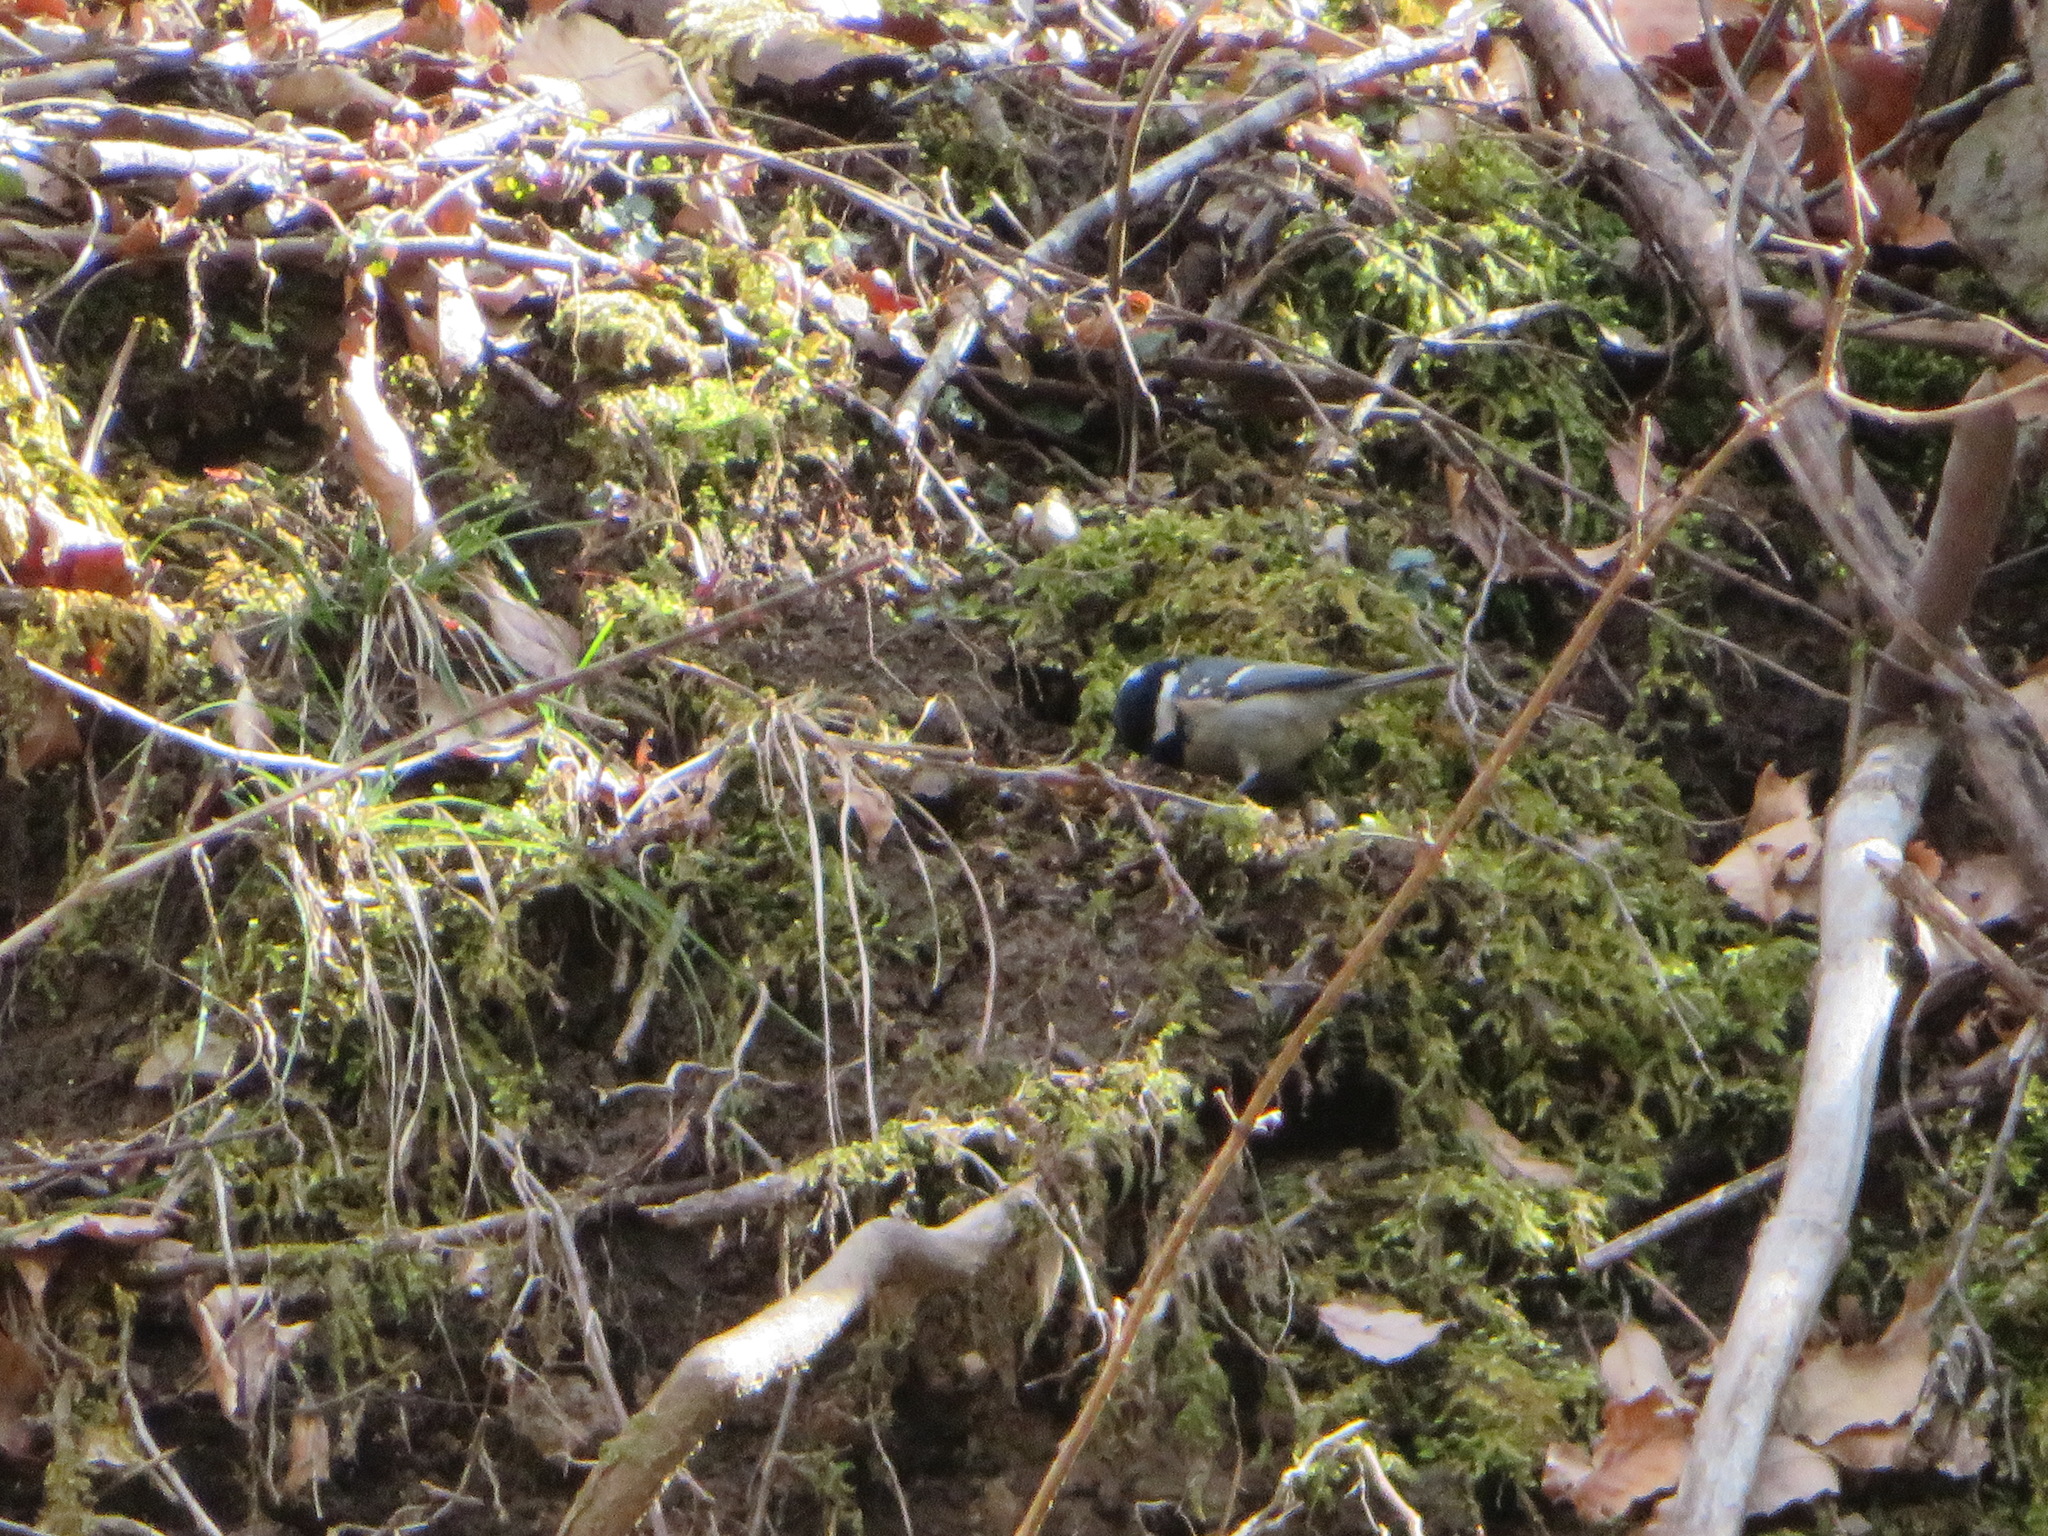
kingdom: Animalia
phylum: Chordata
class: Aves
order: Passeriformes
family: Paridae
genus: Periparus
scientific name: Periparus ater
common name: Coal tit
